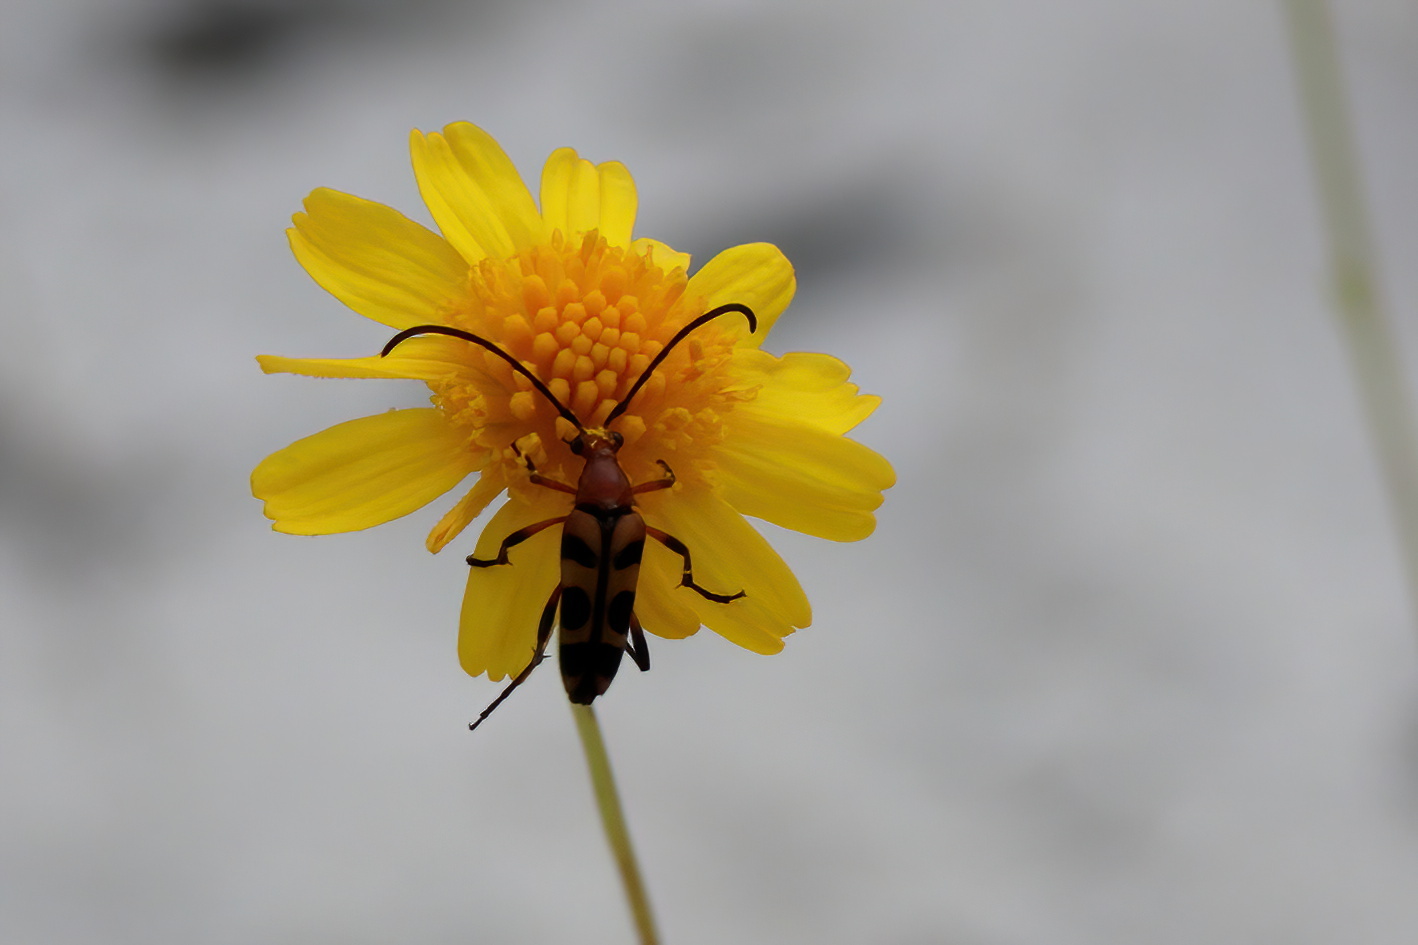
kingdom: Animalia
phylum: Arthropoda
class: Insecta
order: Coleoptera
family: Cerambycidae
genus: Strangalia
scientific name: Strangalia sexnotata
